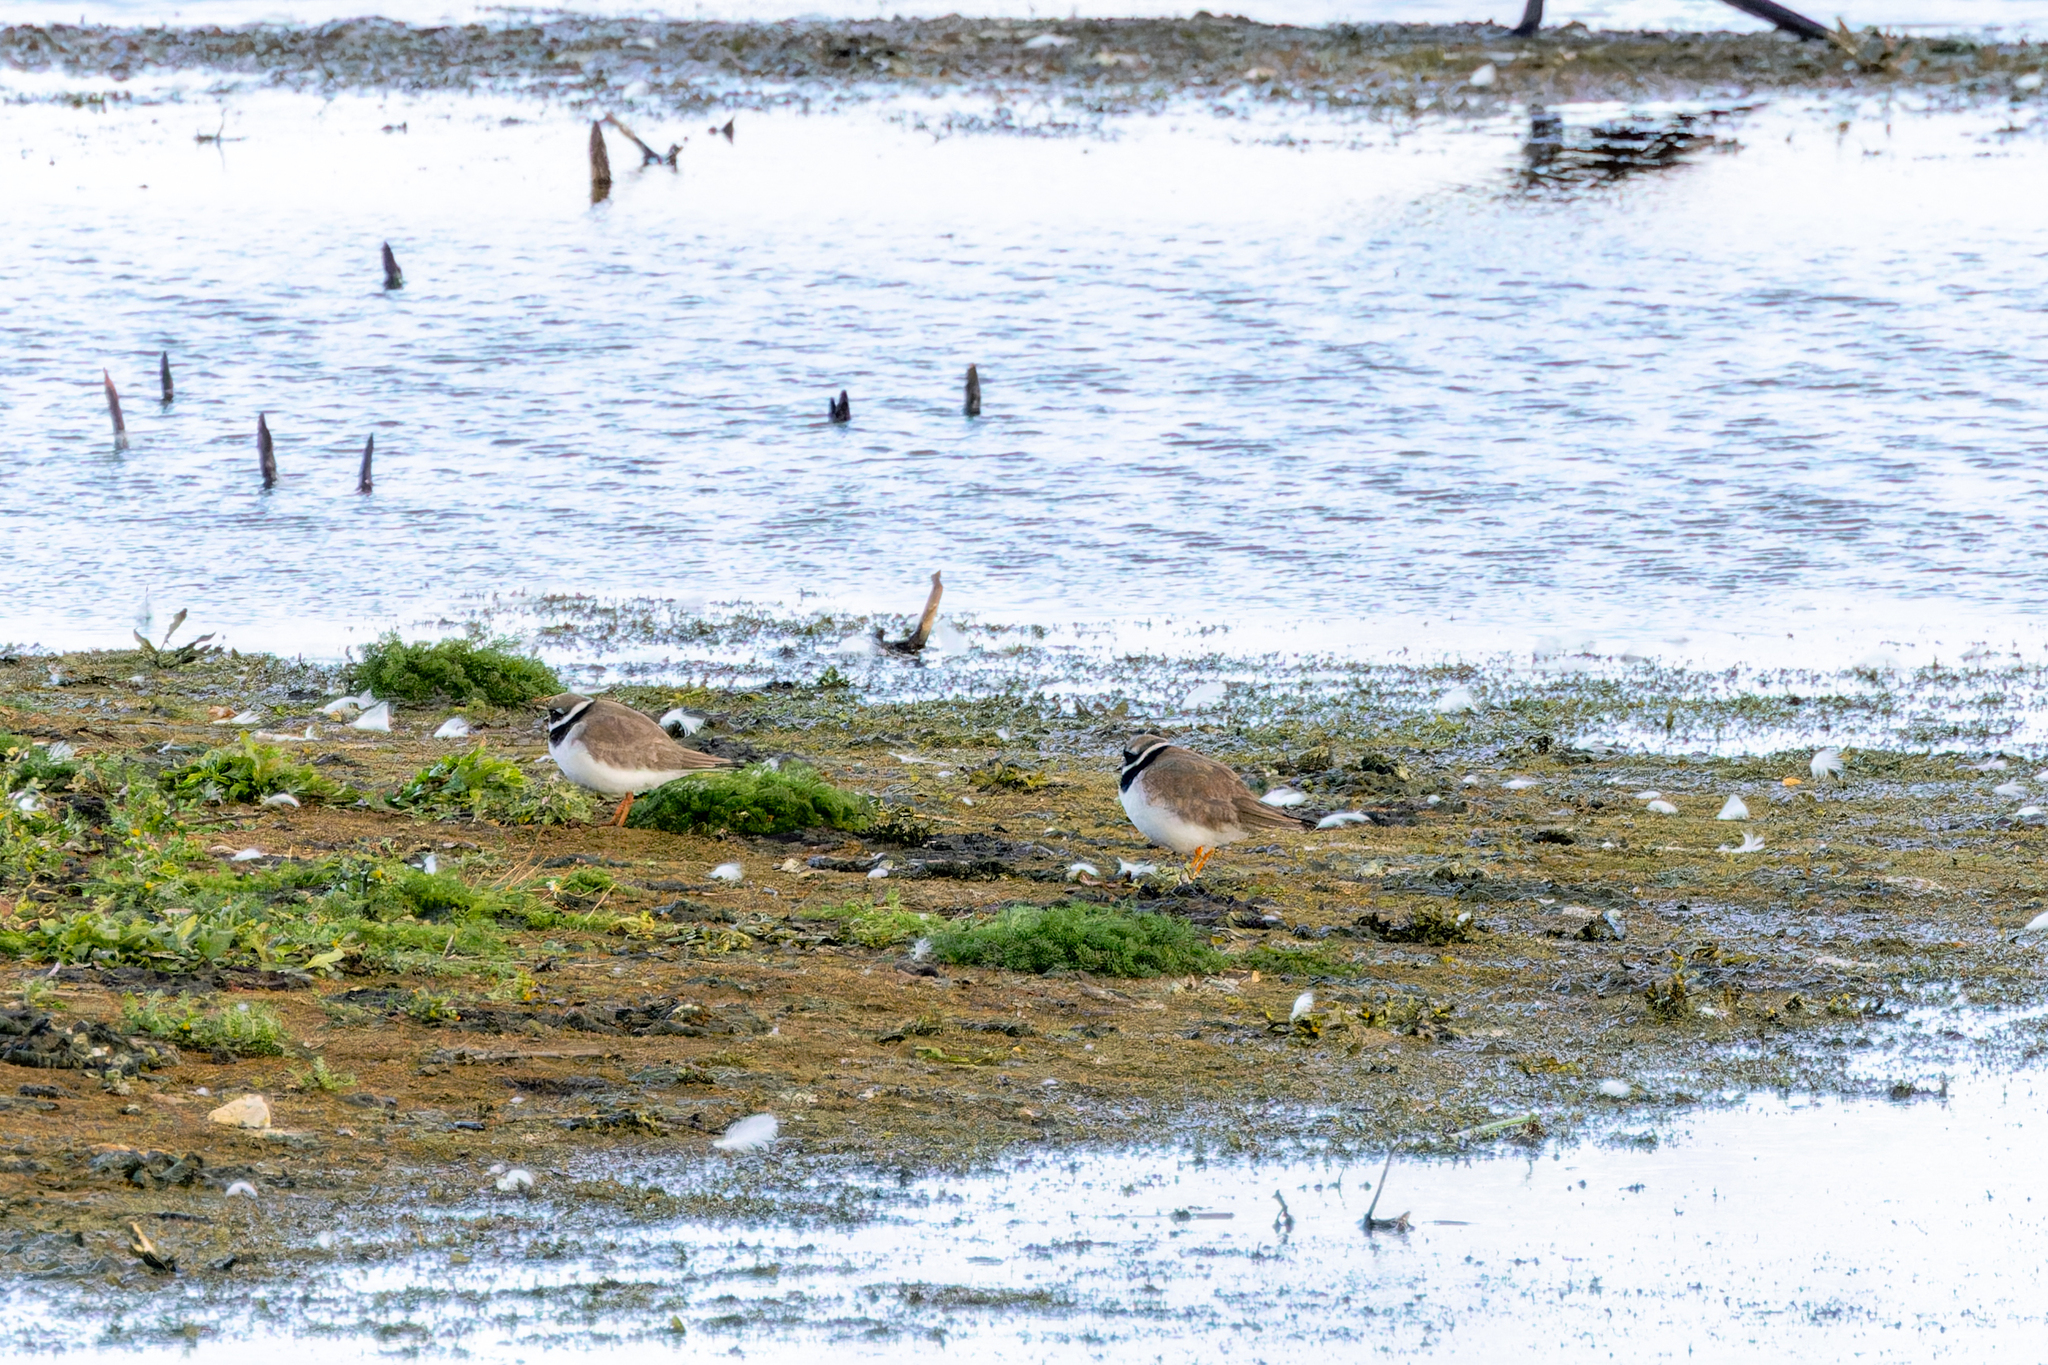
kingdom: Animalia
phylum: Chordata
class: Aves
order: Charadriiformes
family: Charadriidae
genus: Charadrius
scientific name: Charadrius hiaticula
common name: Common ringed plover
